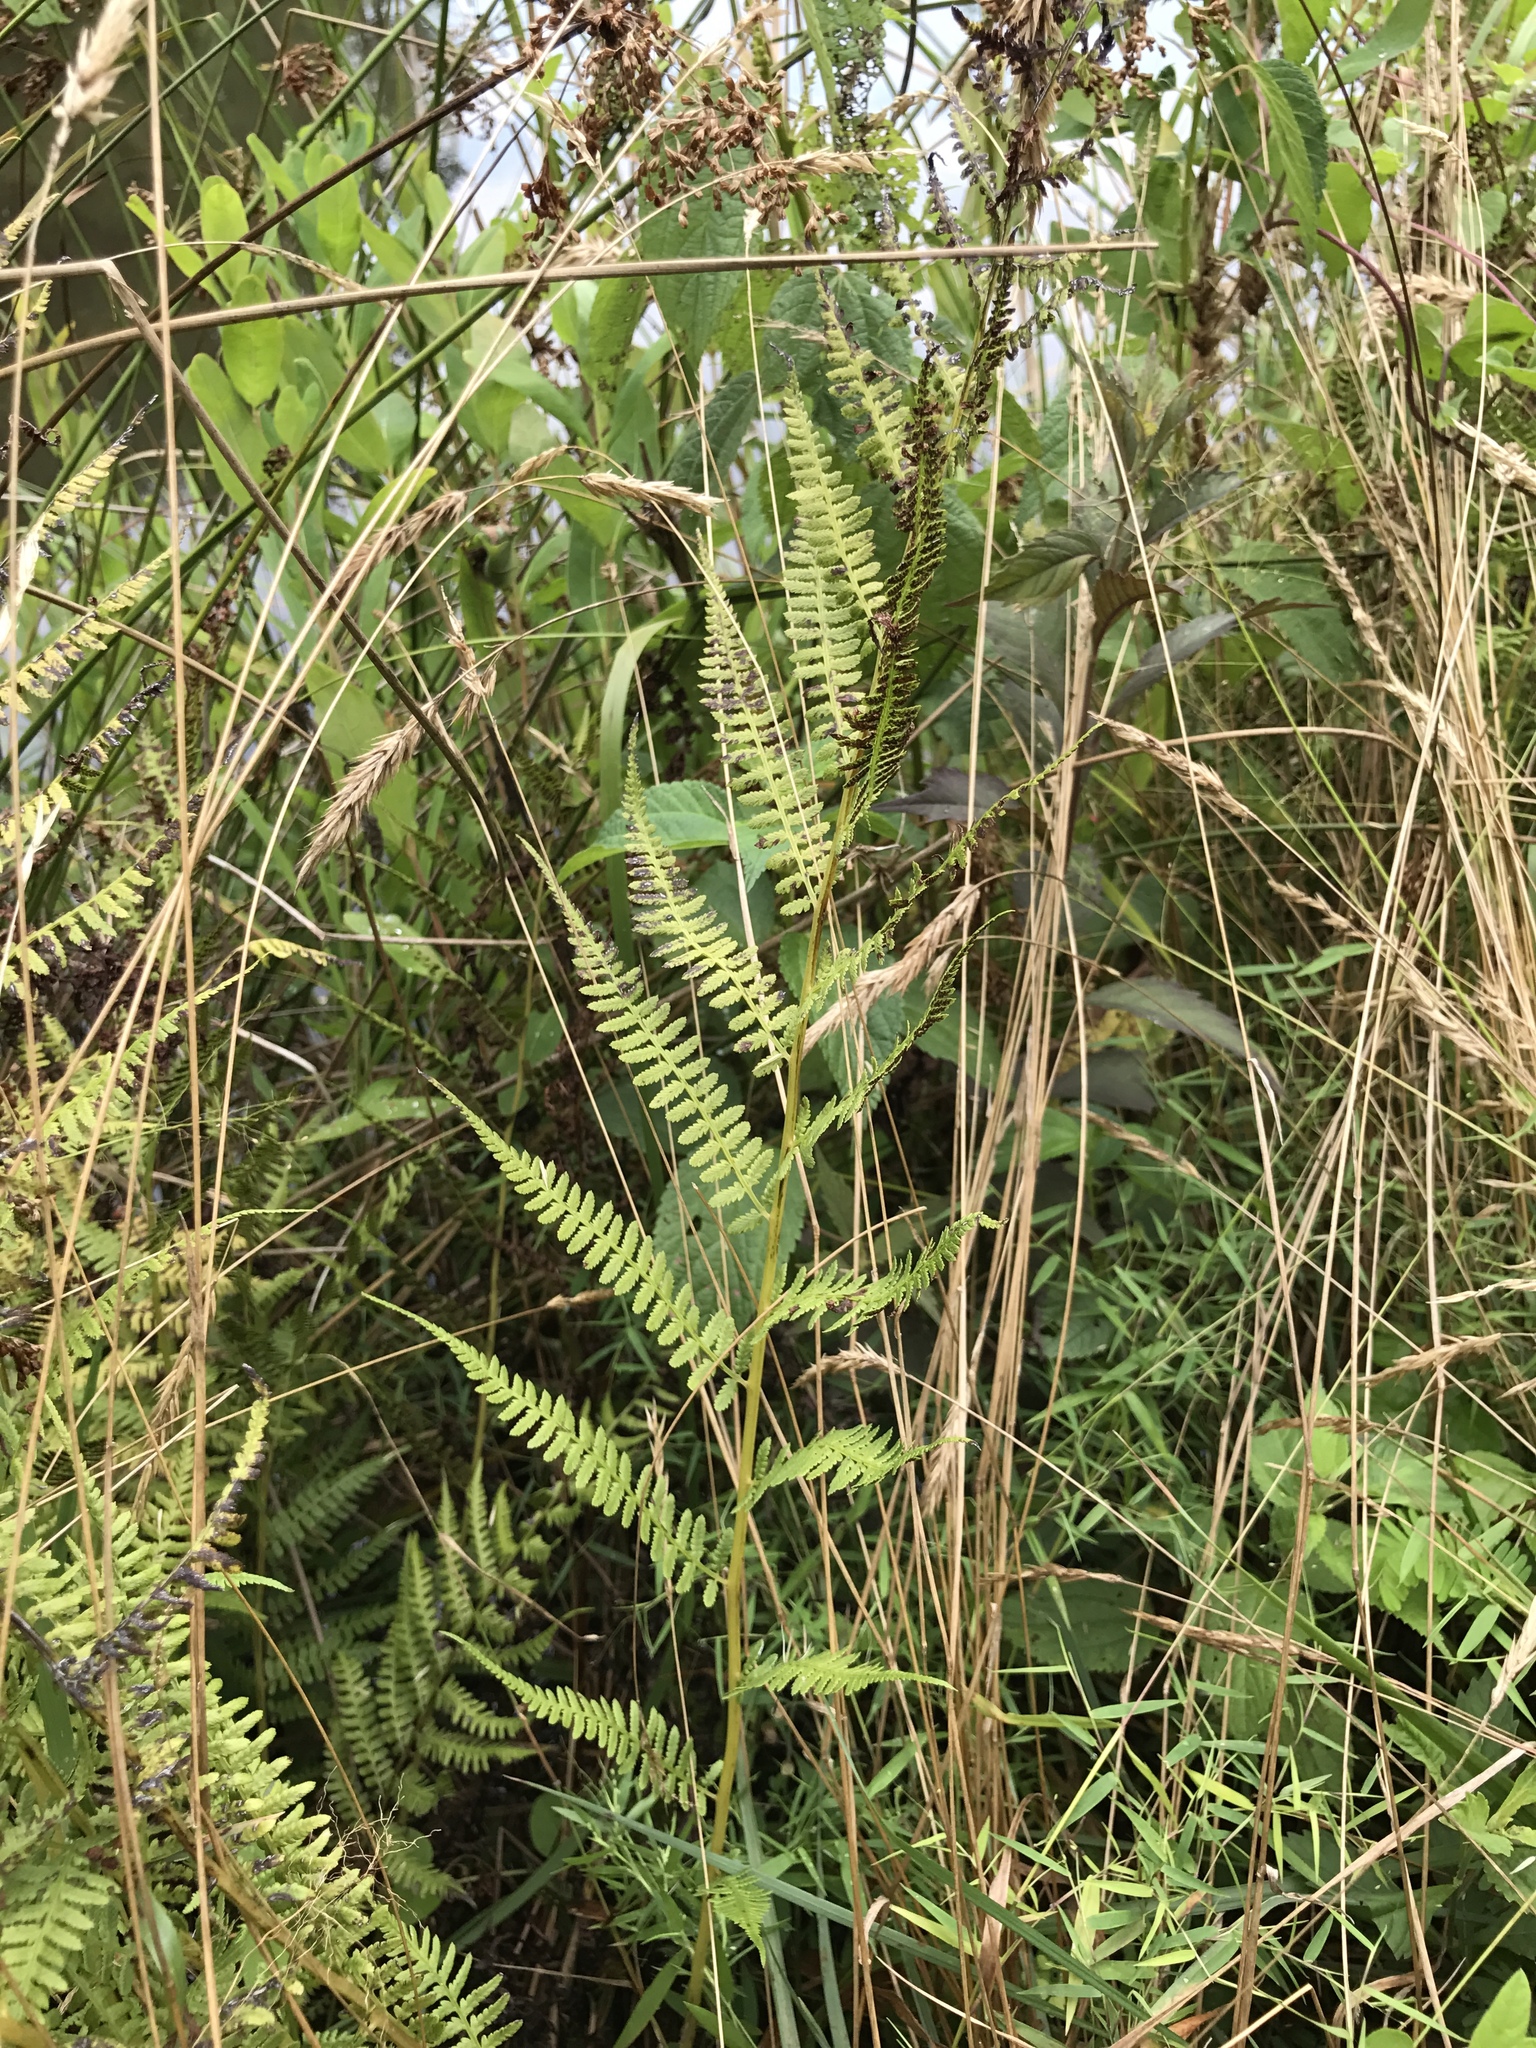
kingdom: Plantae
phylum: Tracheophyta
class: Polypodiopsida
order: Polypodiales
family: Athyriaceae
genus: Athyrium
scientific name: Athyrium asplenioides
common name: Southern lady fern
